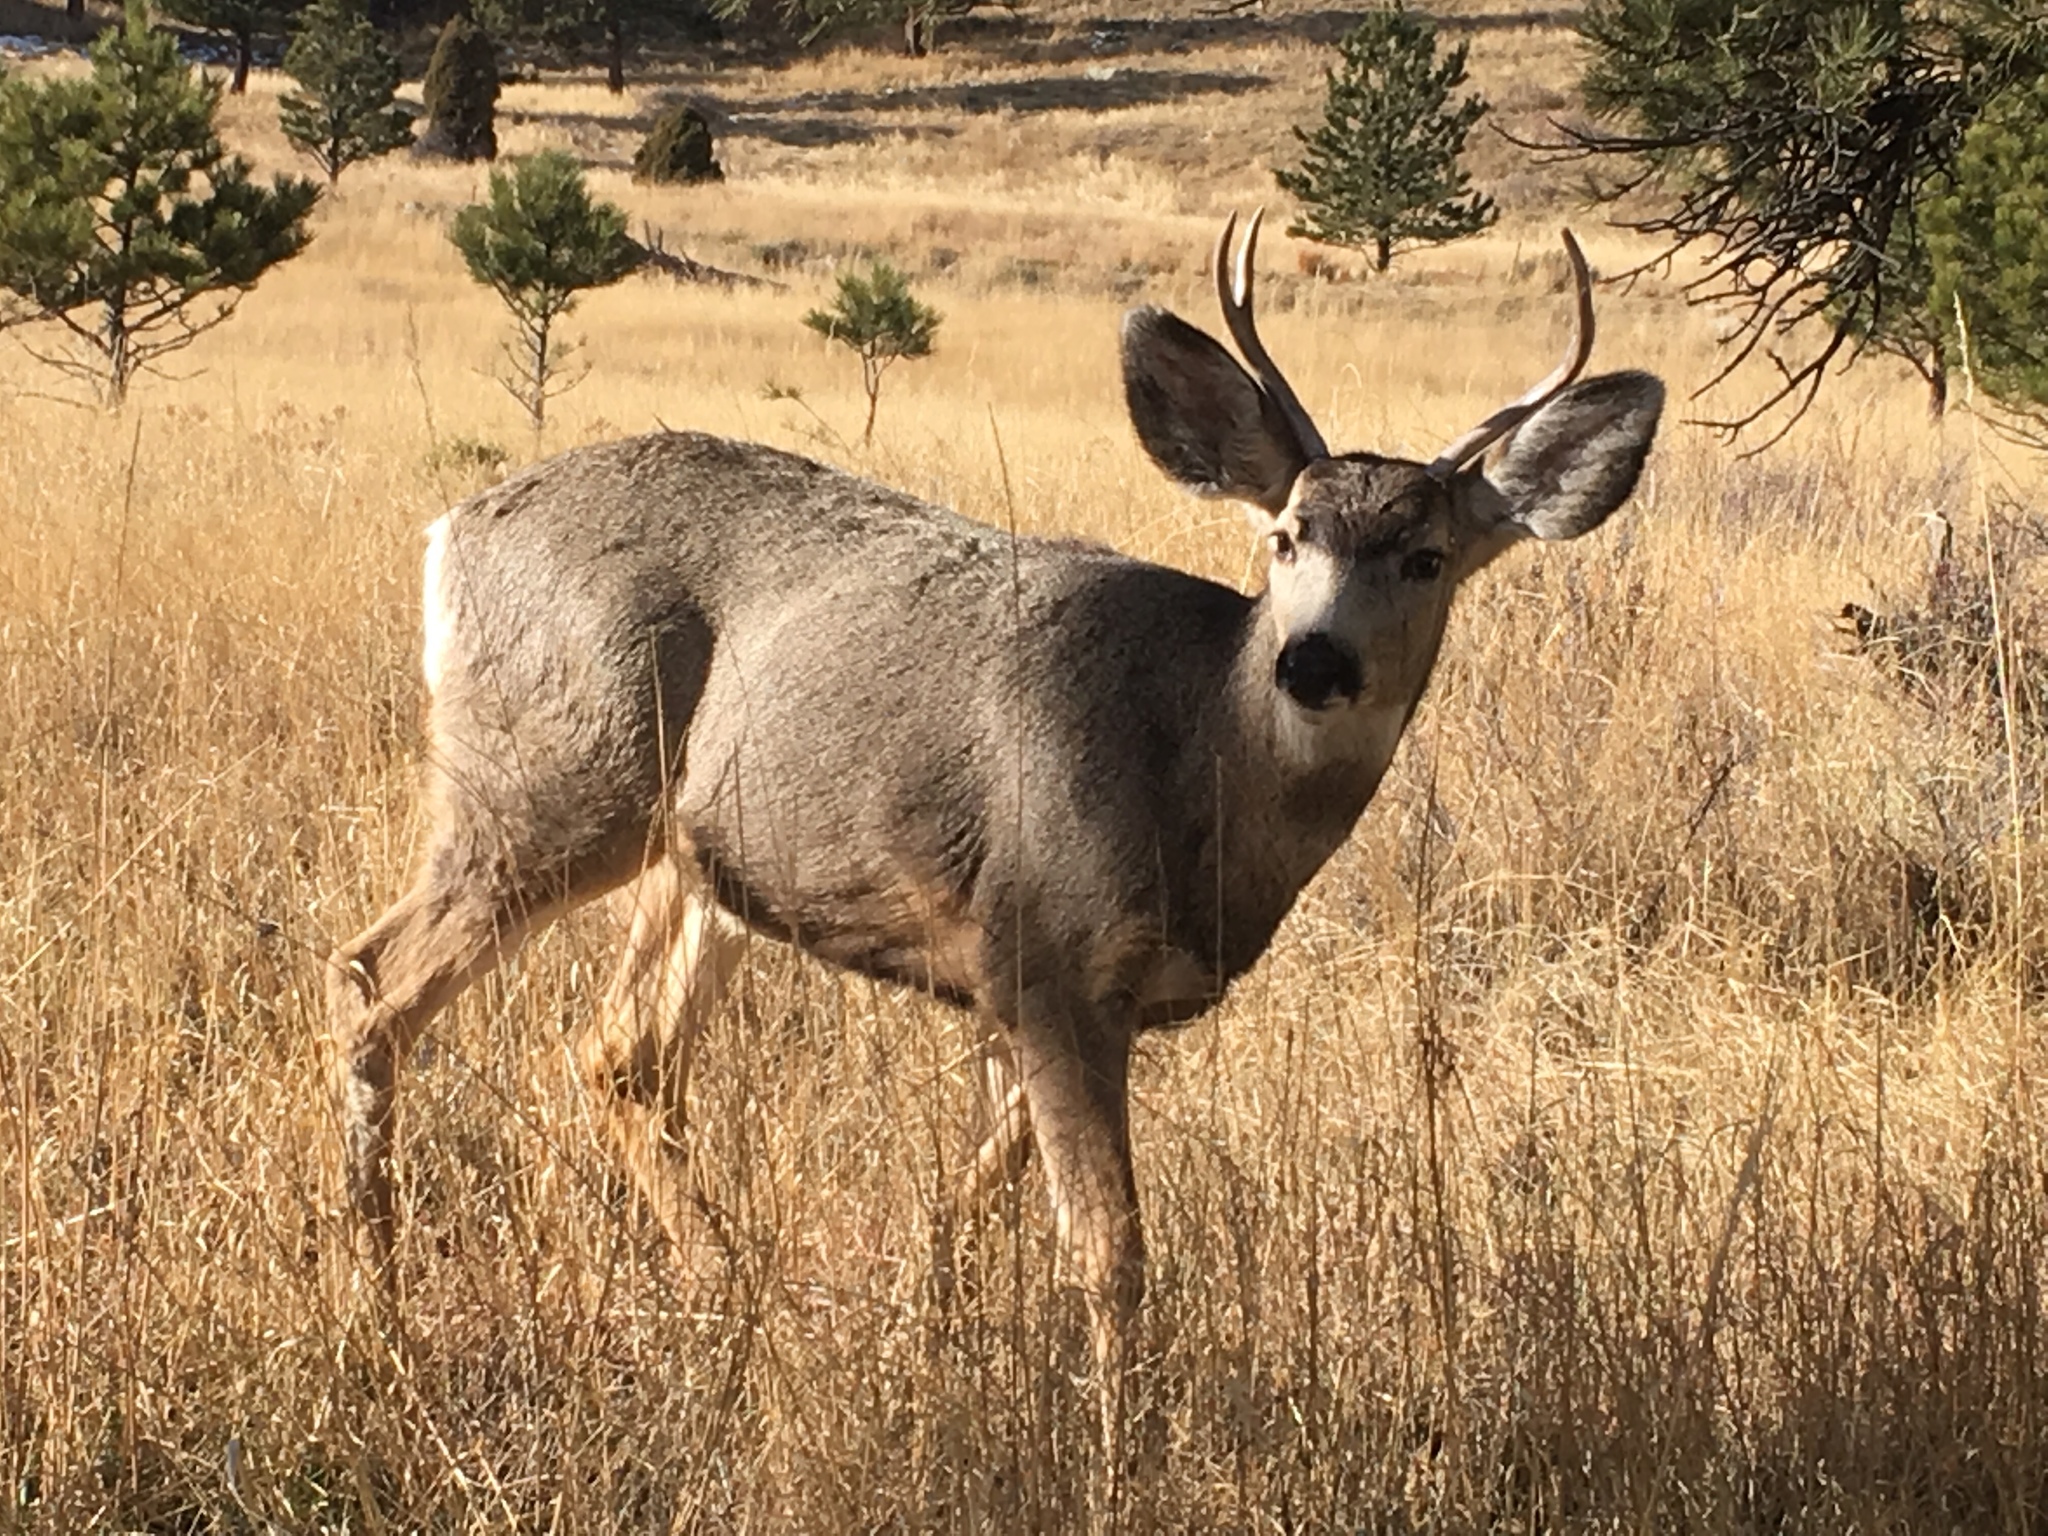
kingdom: Animalia
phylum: Chordata
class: Mammalia
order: Artiodactyla
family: Cervidae
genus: Odocoileus
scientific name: Odocoileus hemionus
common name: Mule deer
